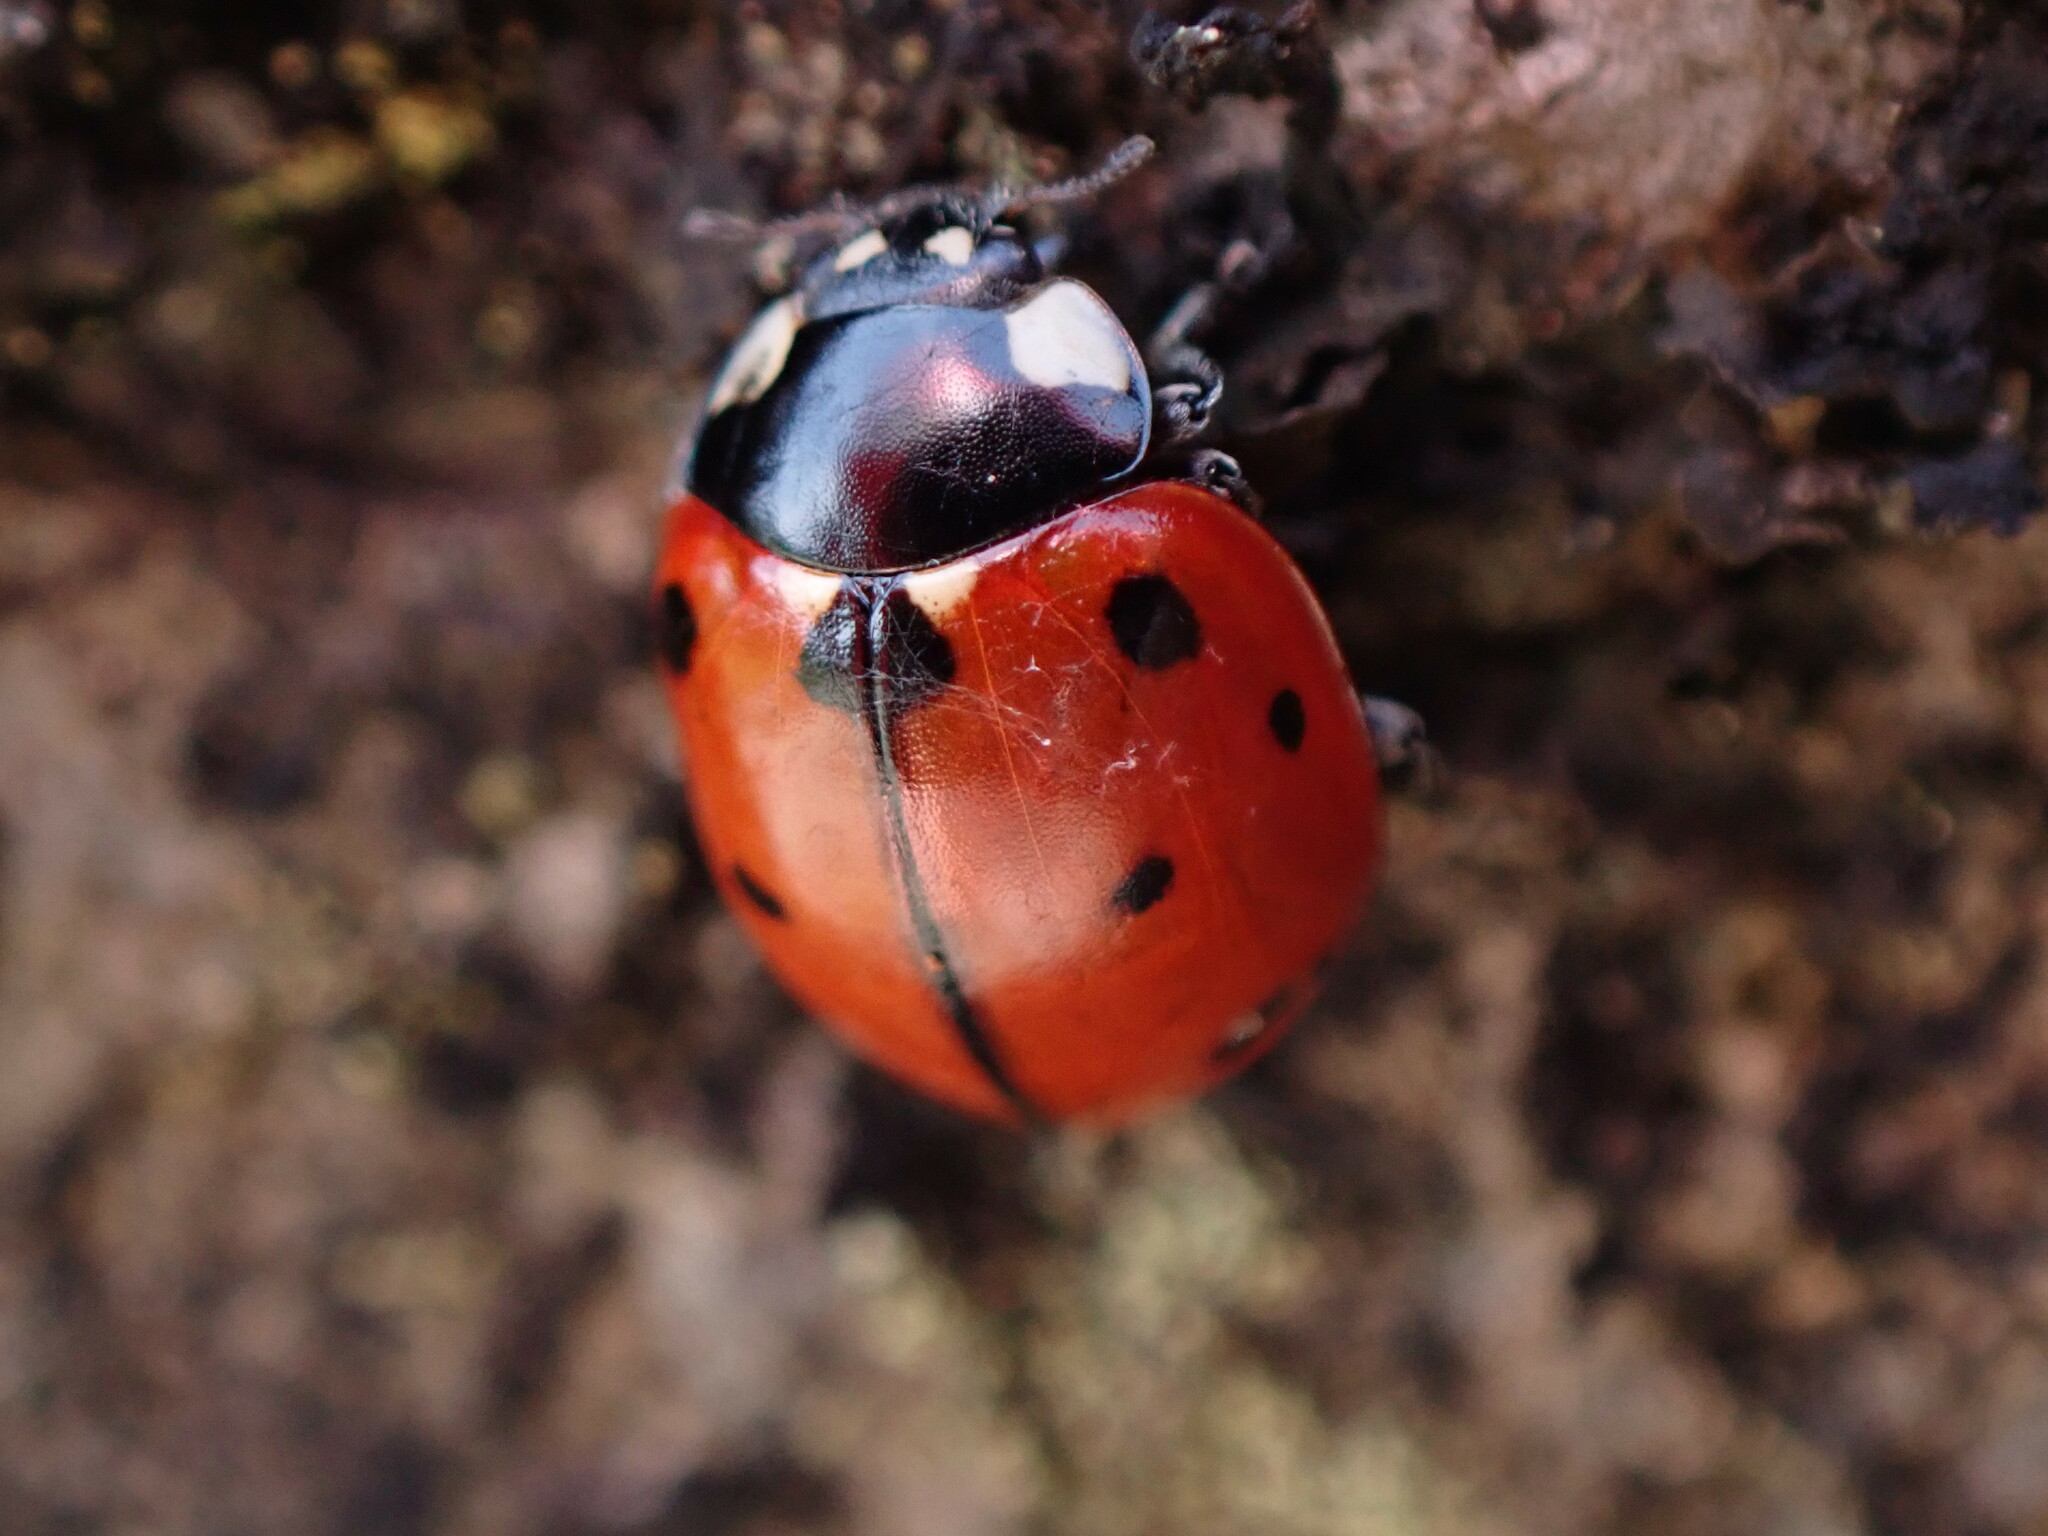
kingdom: Animalia
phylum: Arthropoda
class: Insecta
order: Coleoptera
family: Coccinellidae
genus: Coccinella
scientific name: Coccinella californica
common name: Lady beetle
